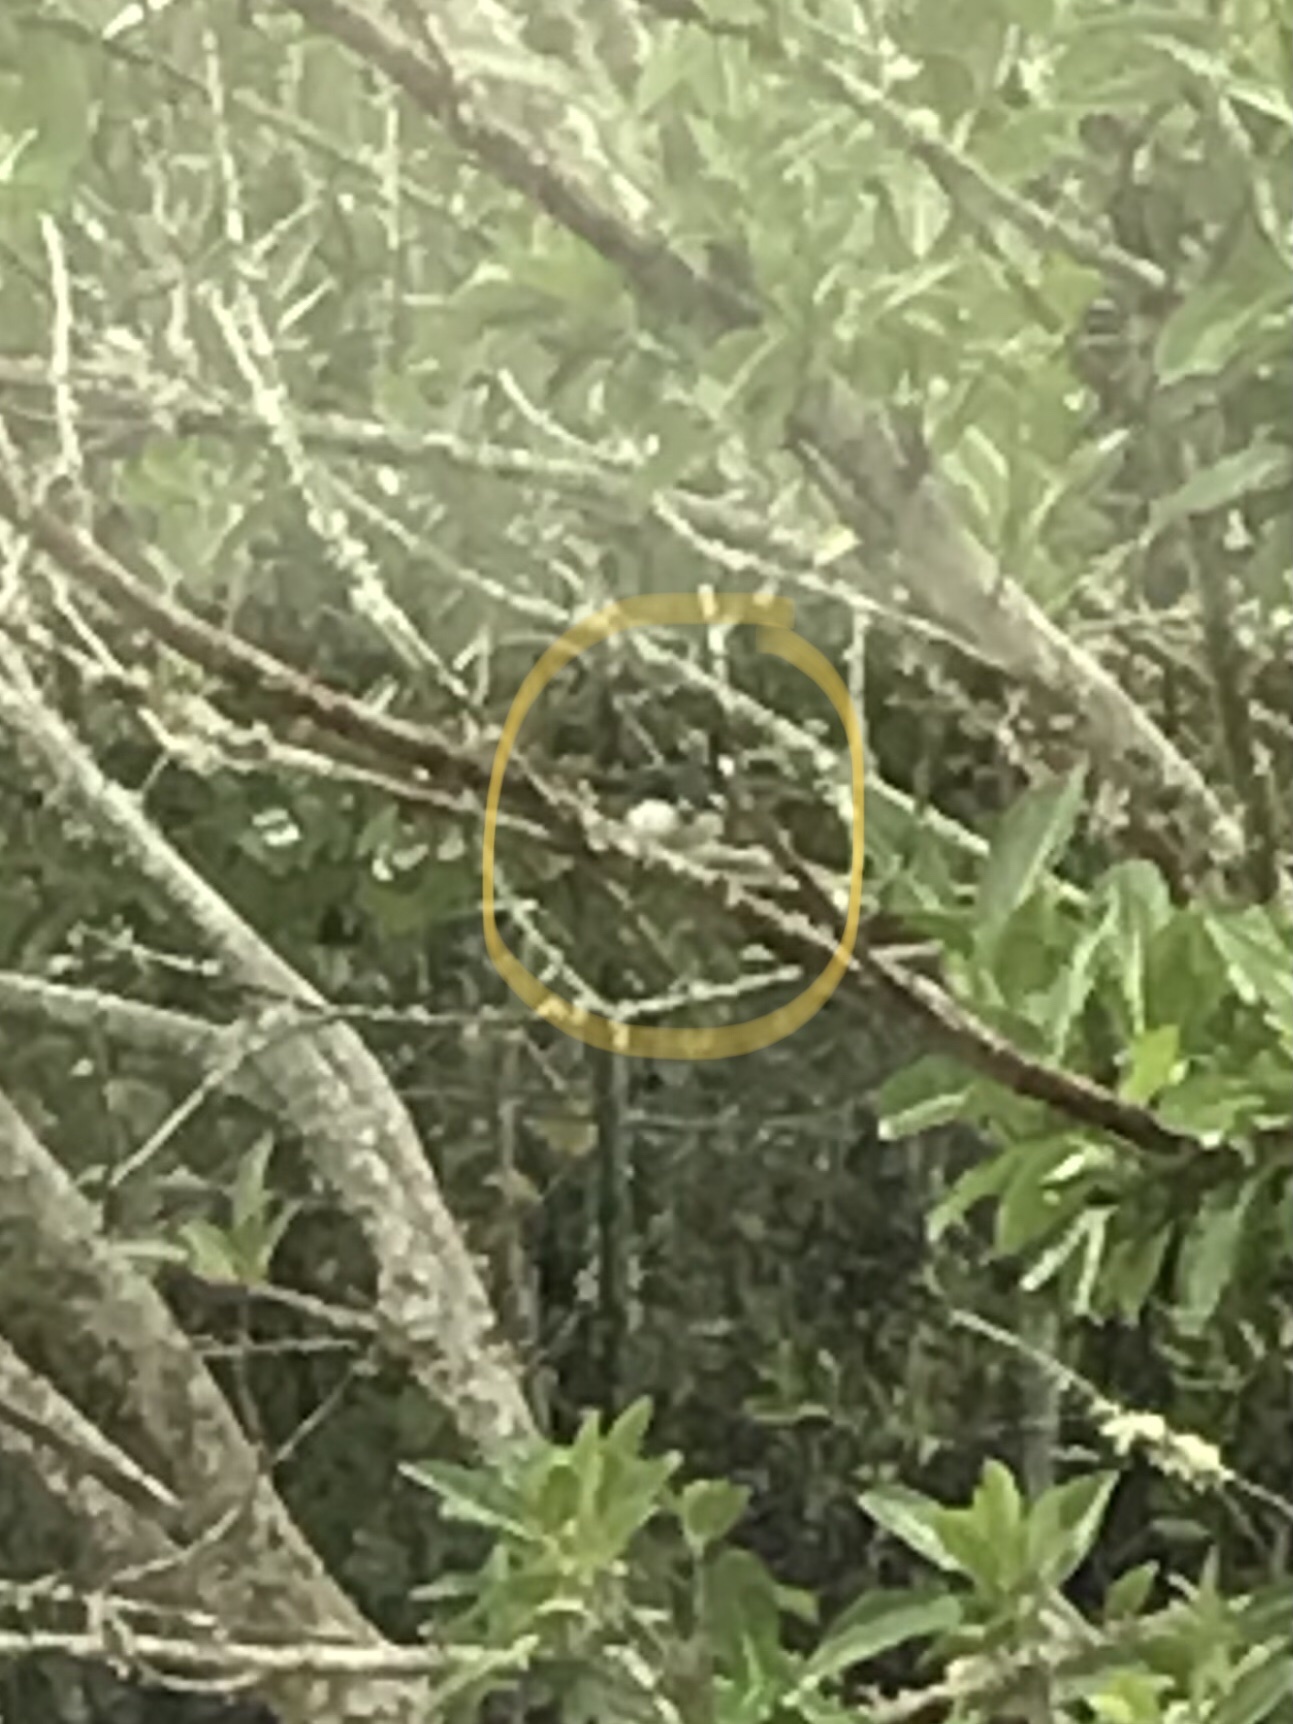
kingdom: Animalia
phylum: Chordata
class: Aves
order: Passeriformes
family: Parulidae
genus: Setophaga
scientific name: Setophaga caerulescens
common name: Black-throated blue warbler
